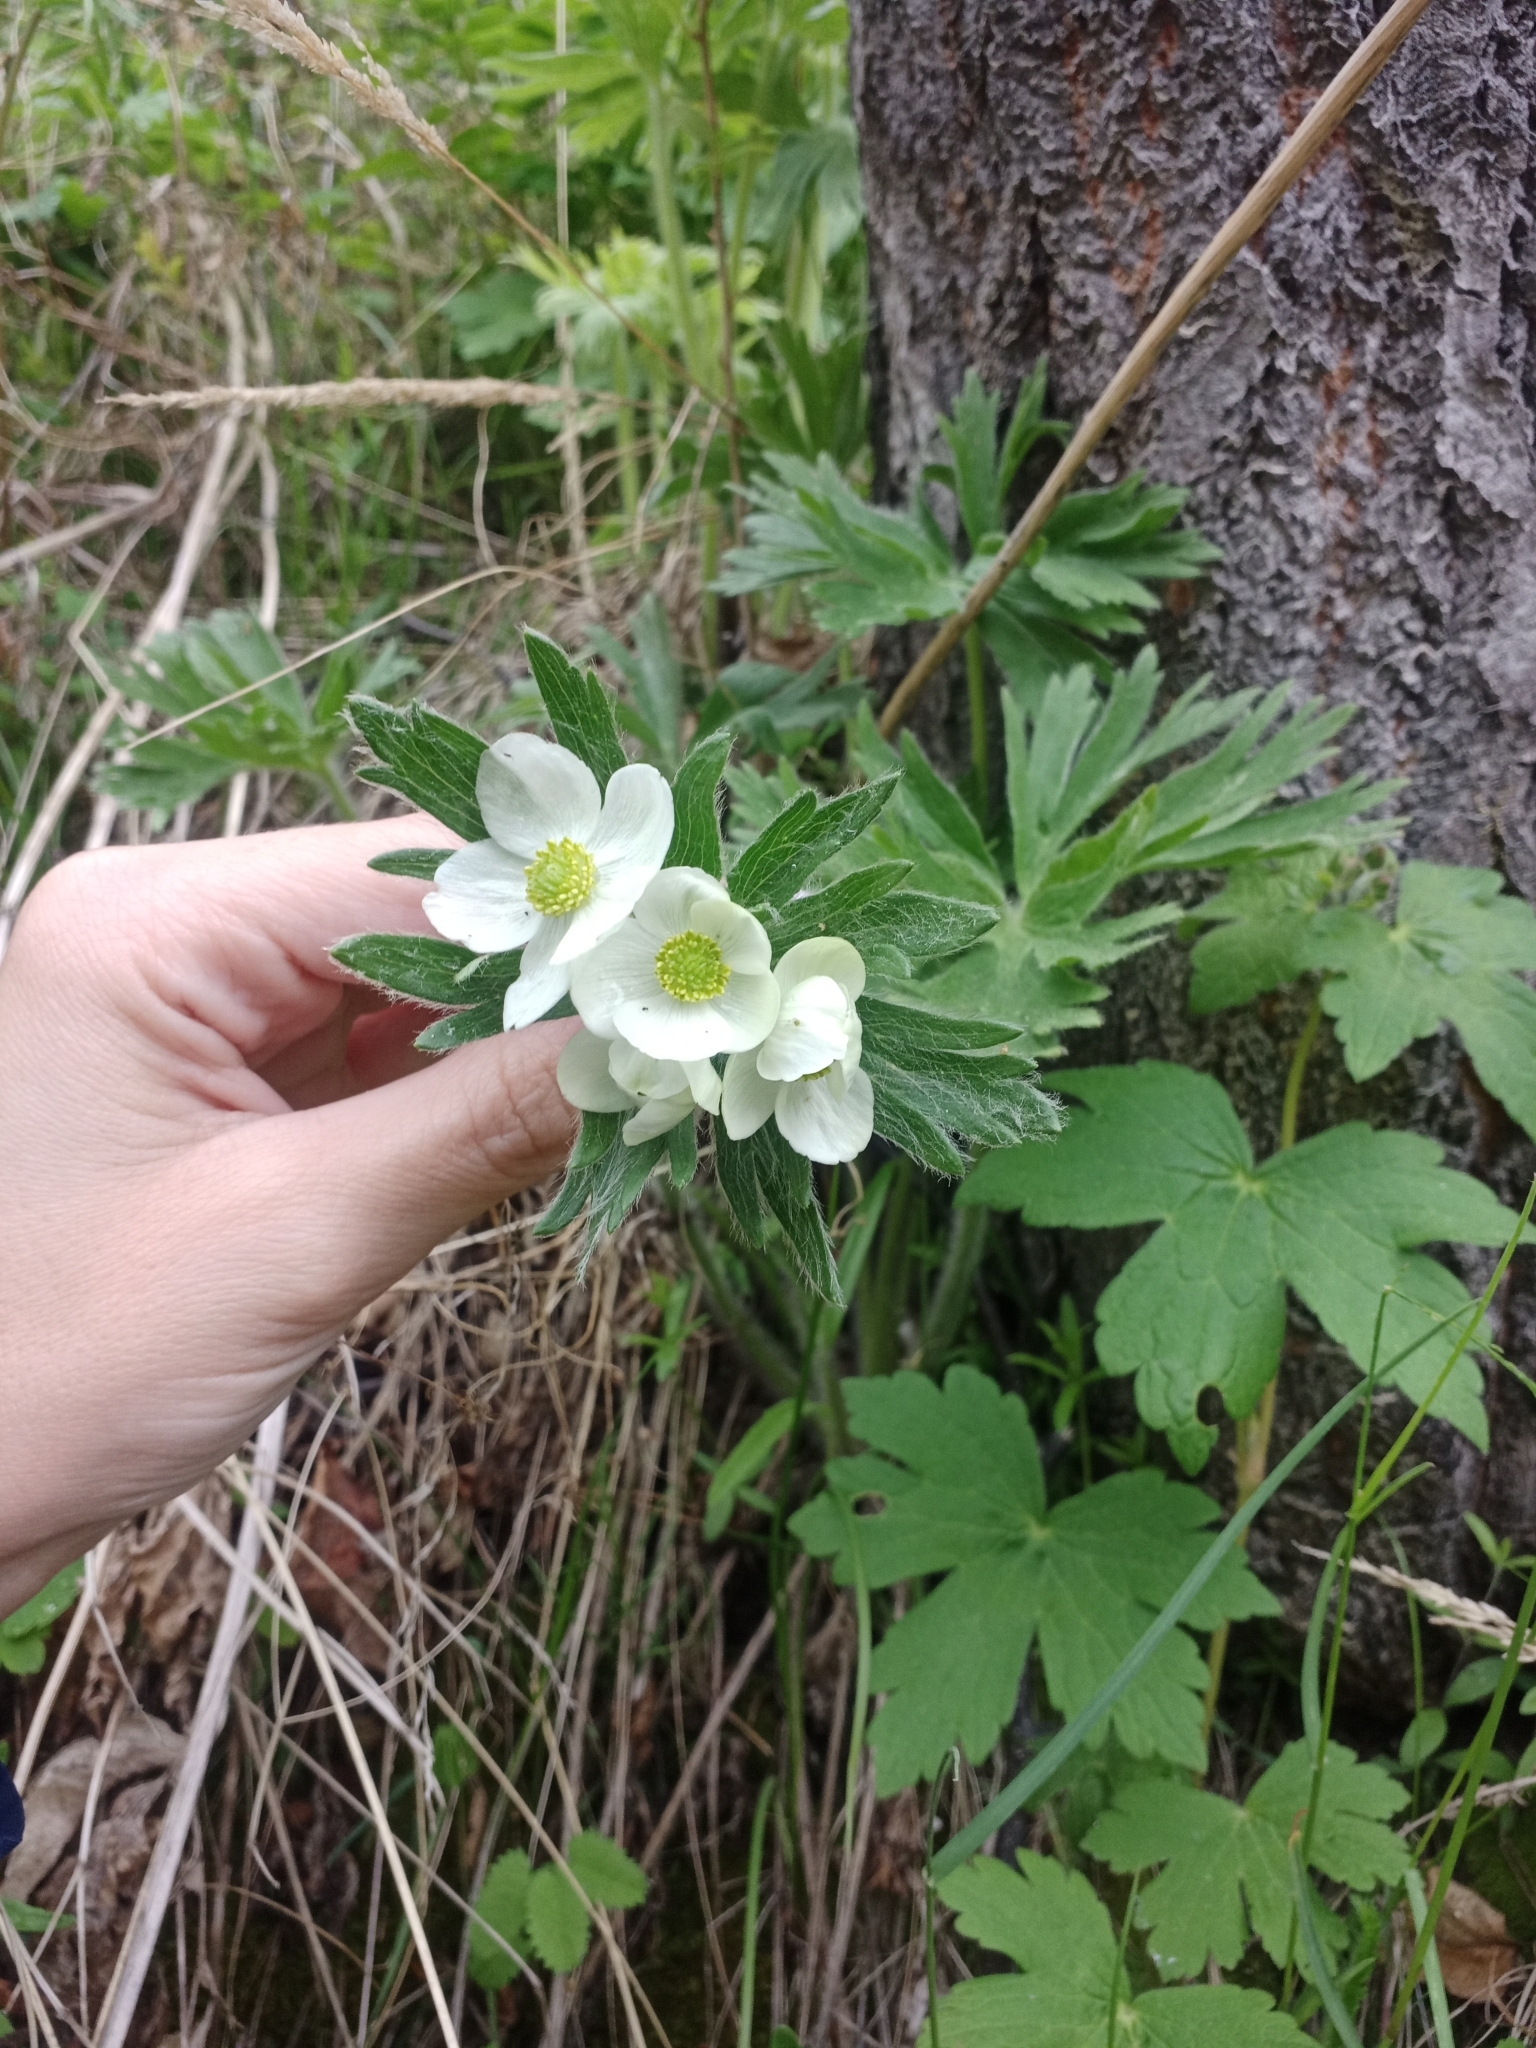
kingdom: Plantae
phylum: Tracheophyta
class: Magnoliopsida
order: Ranunculales
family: Ranunculaceae
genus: Anemonastrum
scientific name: Anemonastrum narcissiflorum
